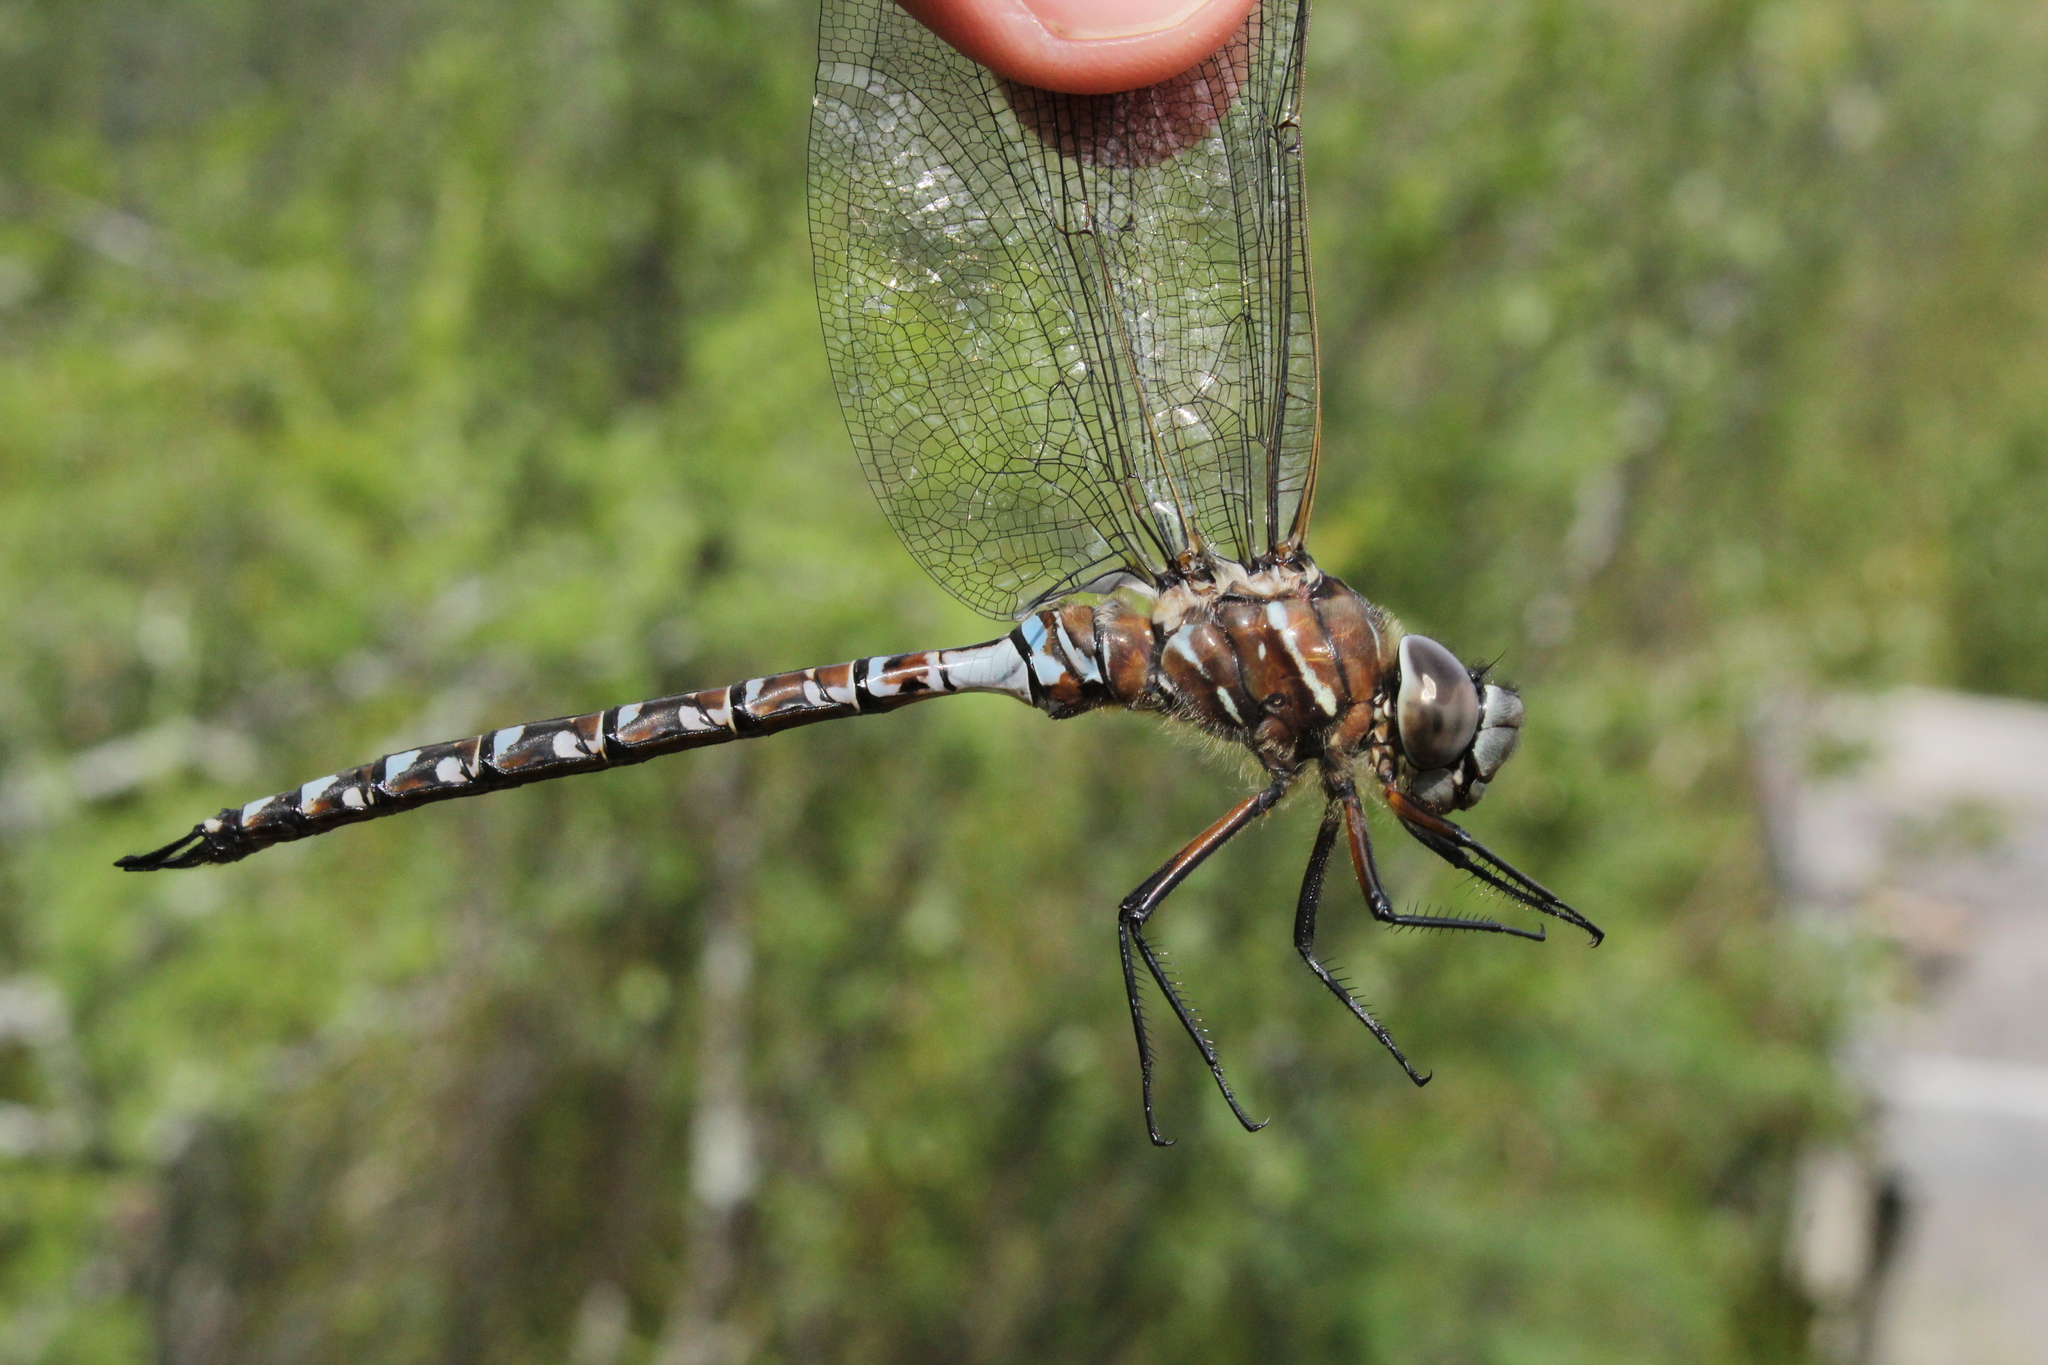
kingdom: Animalia
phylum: Arthropoda
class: Insecta
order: Odonata
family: Aeshnidae
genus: Aeshna
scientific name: Aeshna interrupta
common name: Variable darner
